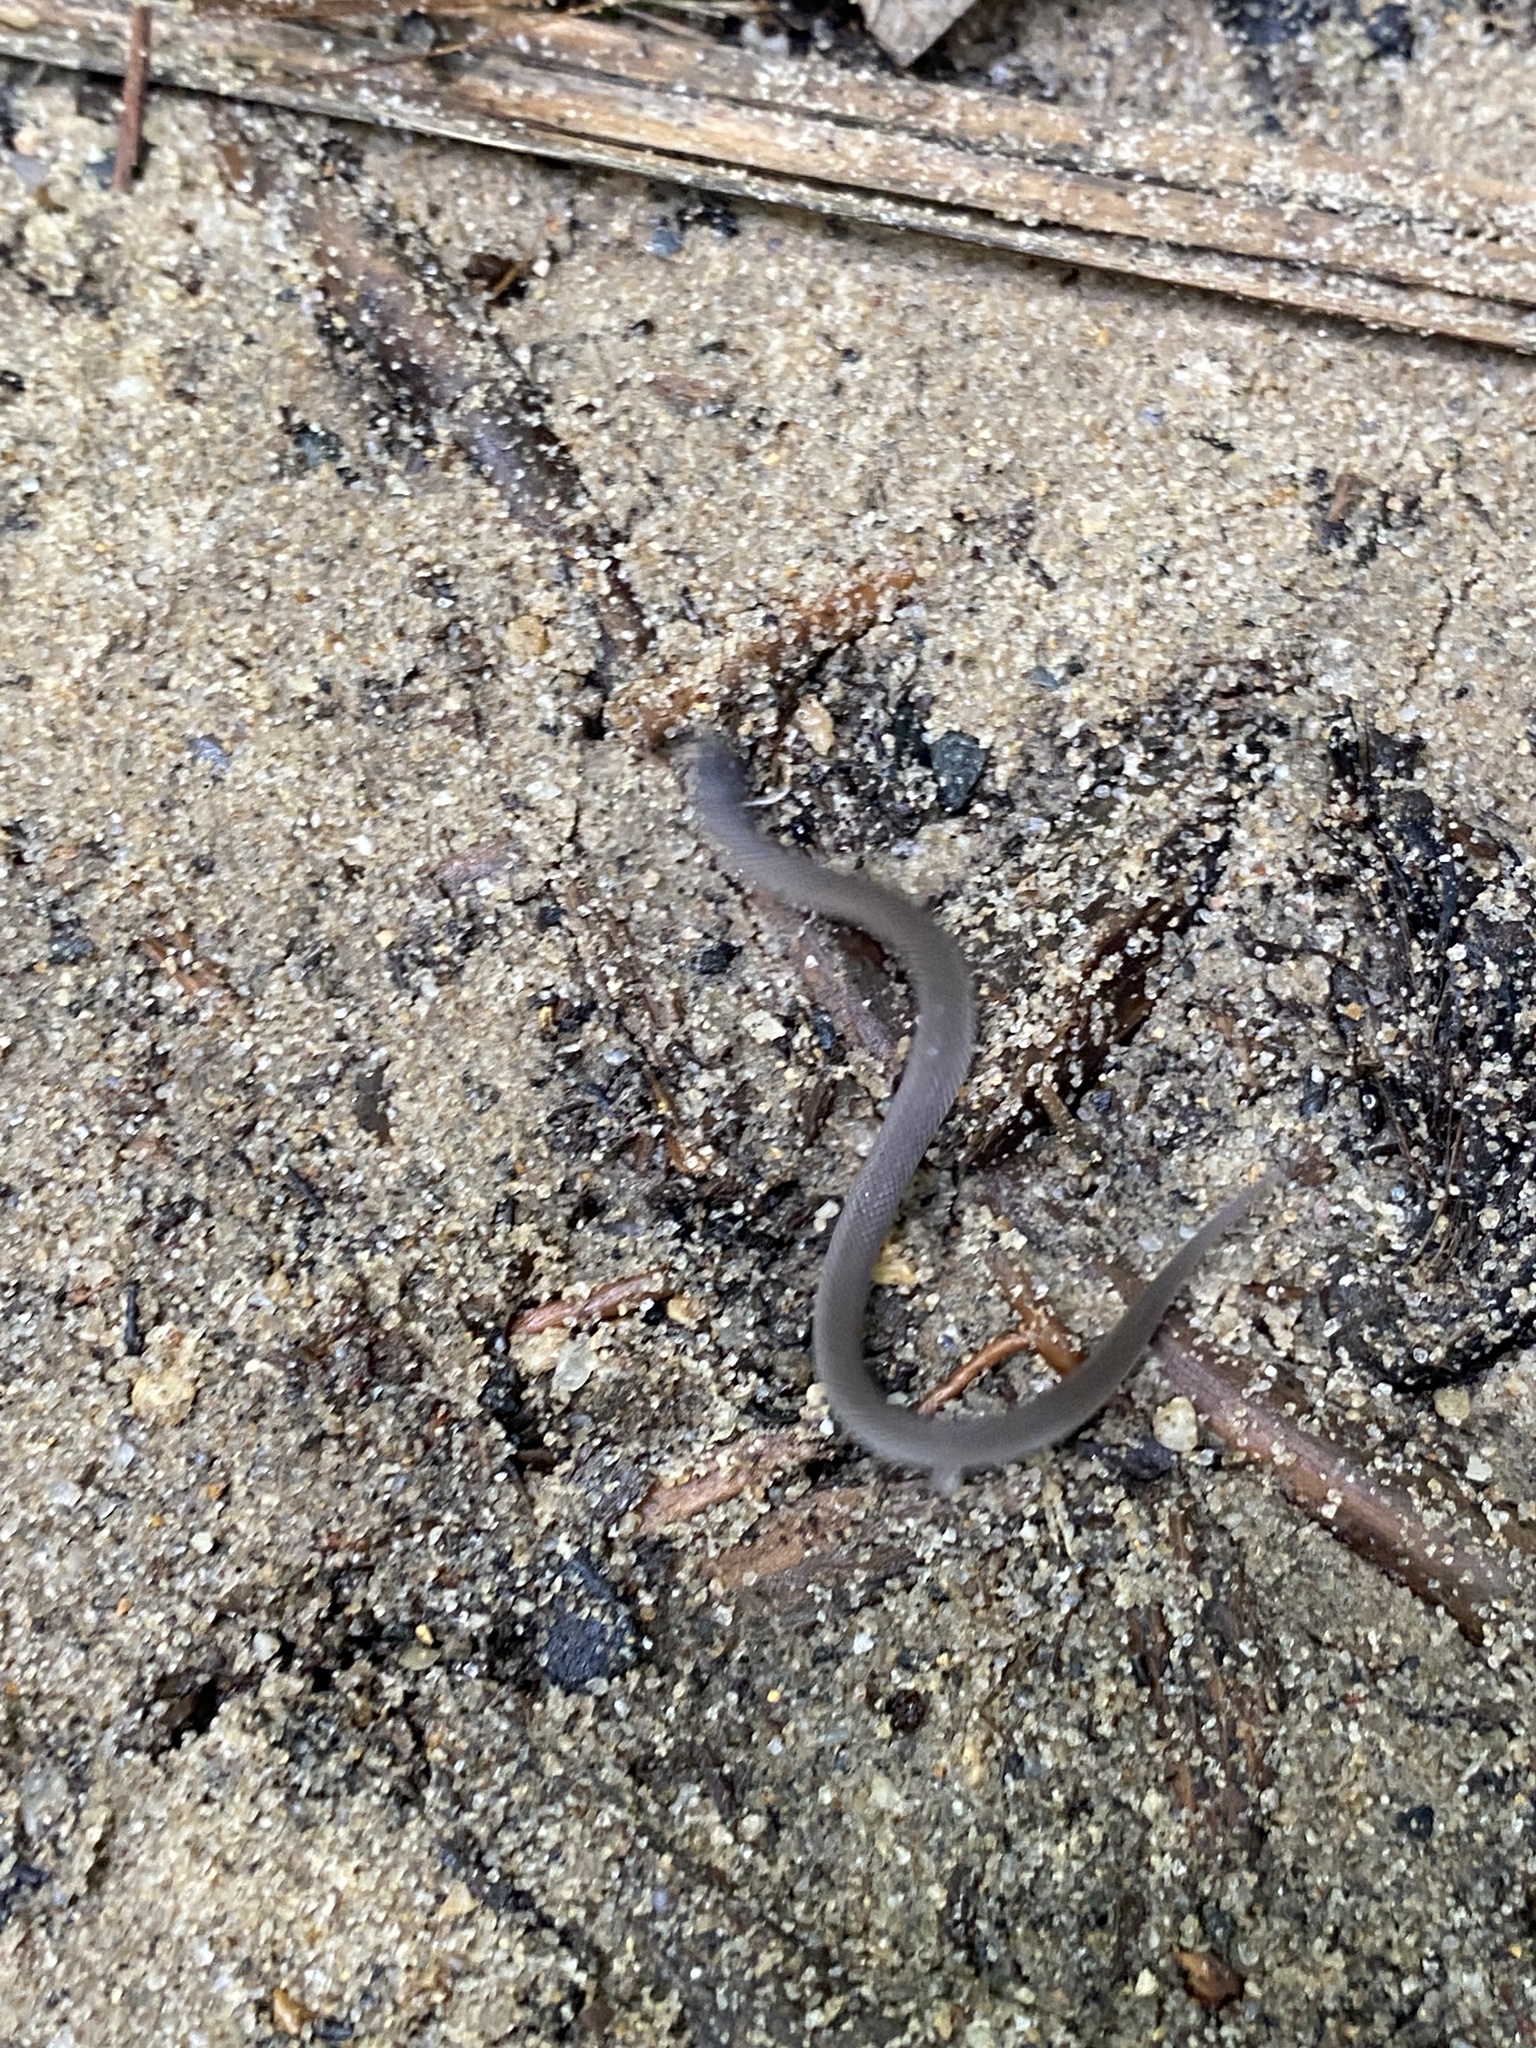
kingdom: Animalia
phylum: Chordata
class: Squamata
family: Colubridae
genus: Virginia
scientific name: Virginia valeriae
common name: Smooth earth snake
